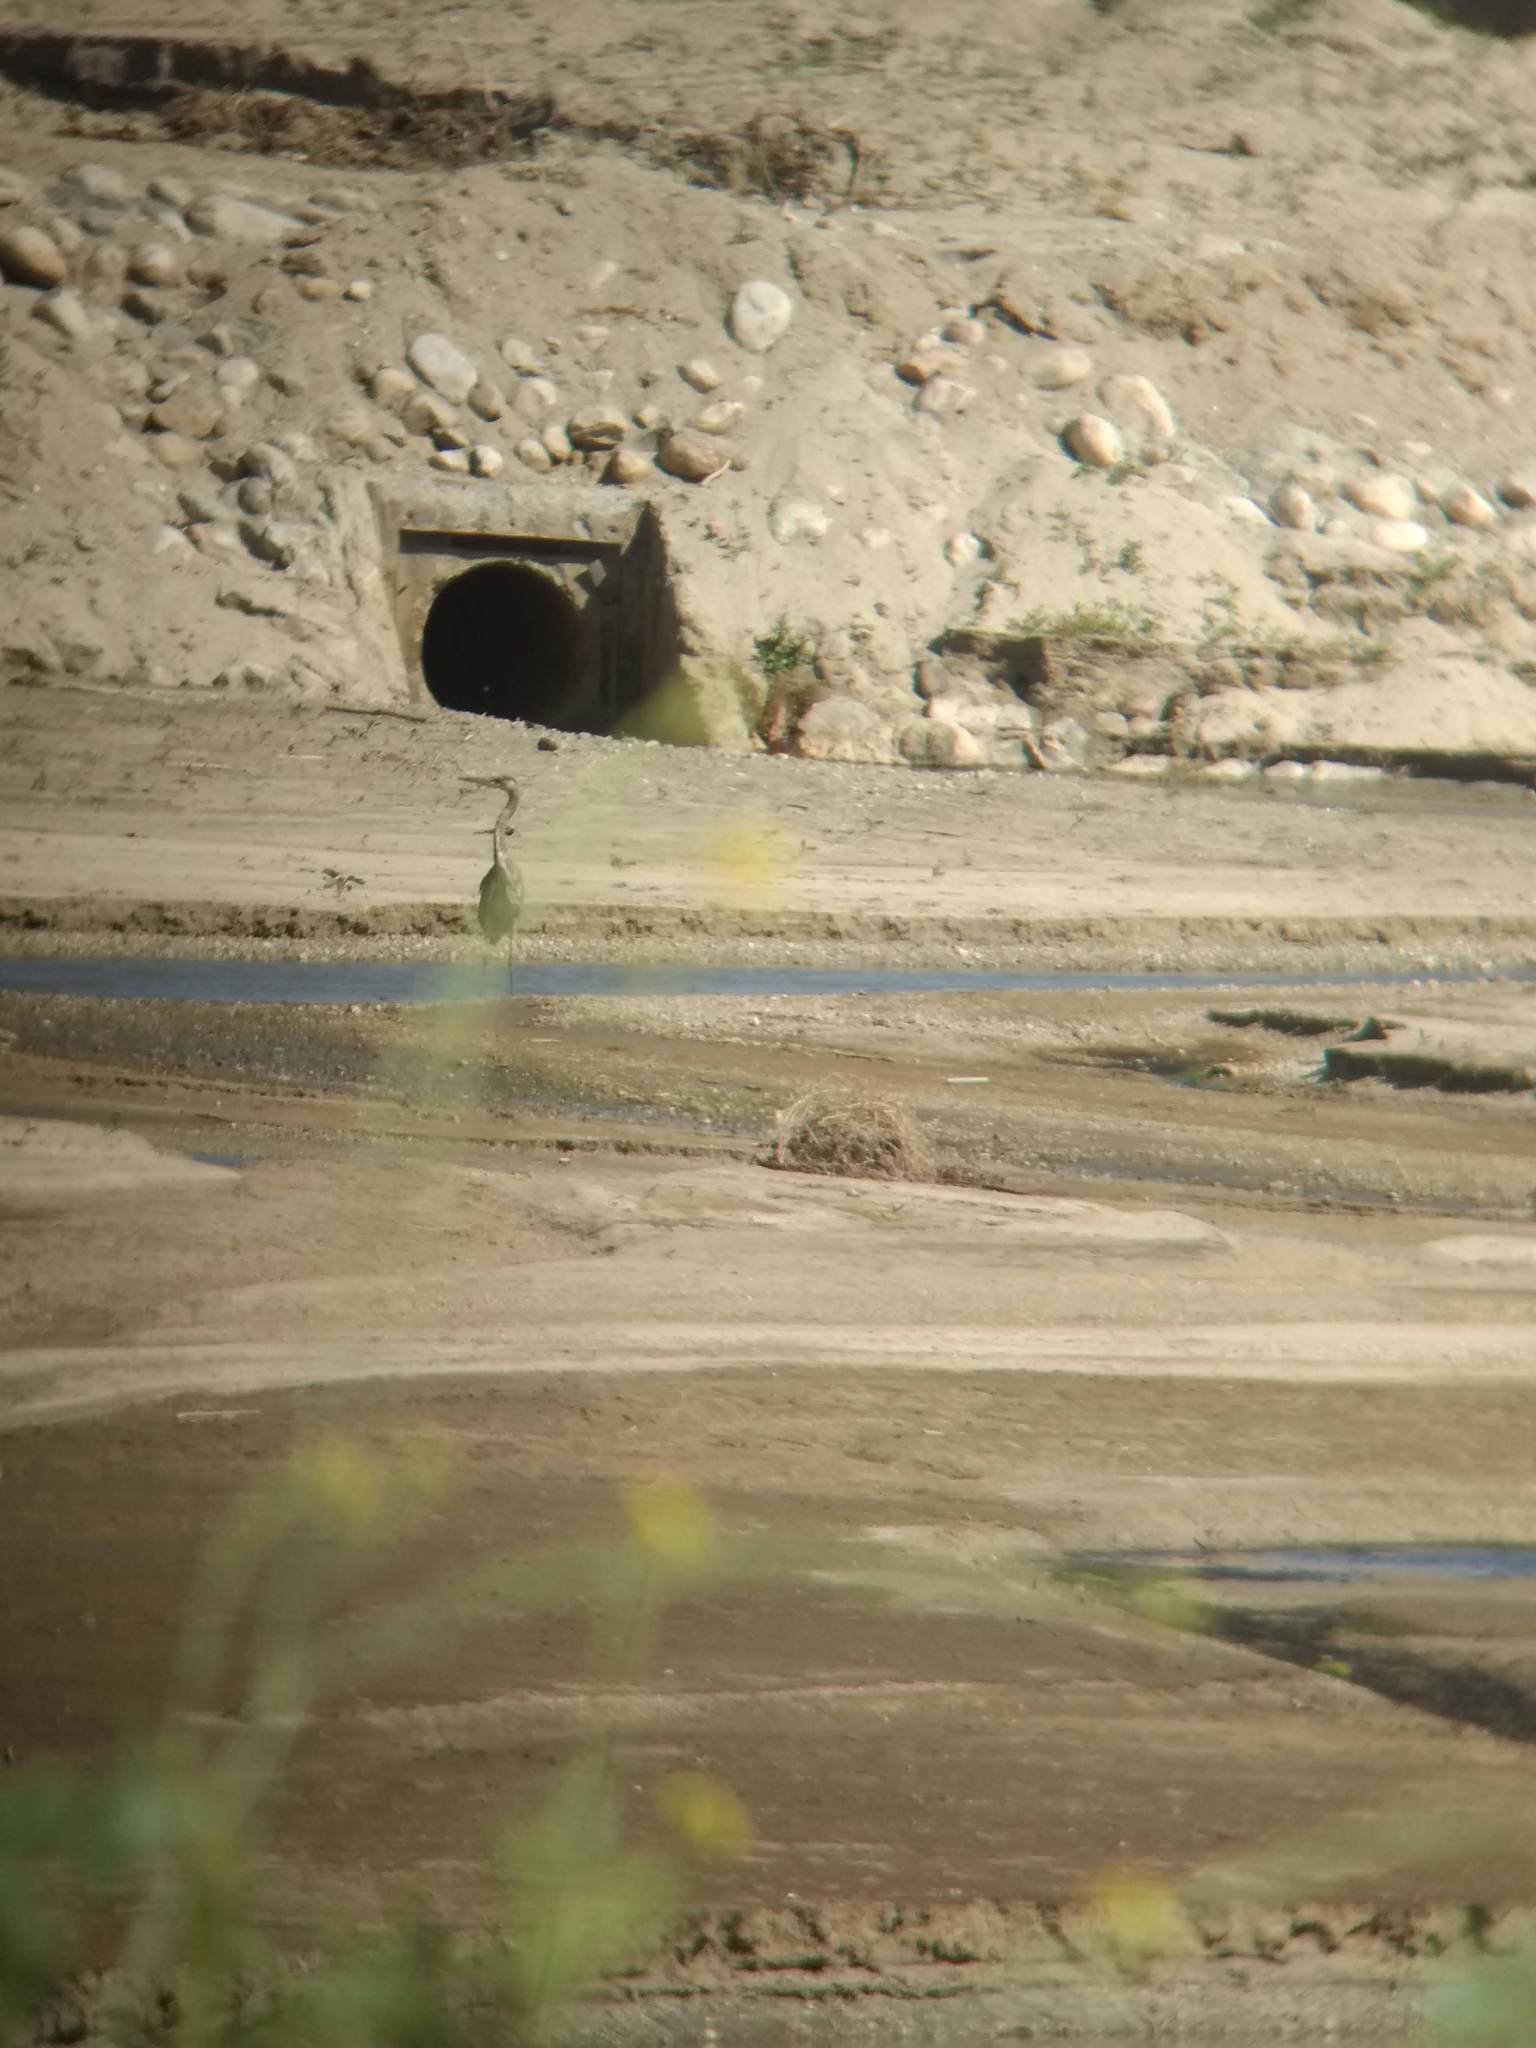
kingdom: Animalia
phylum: Chordata
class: Aves
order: Pelecaniformes
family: Ardeidae
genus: Ardea
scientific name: Ardea herodias
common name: Great blue heron
